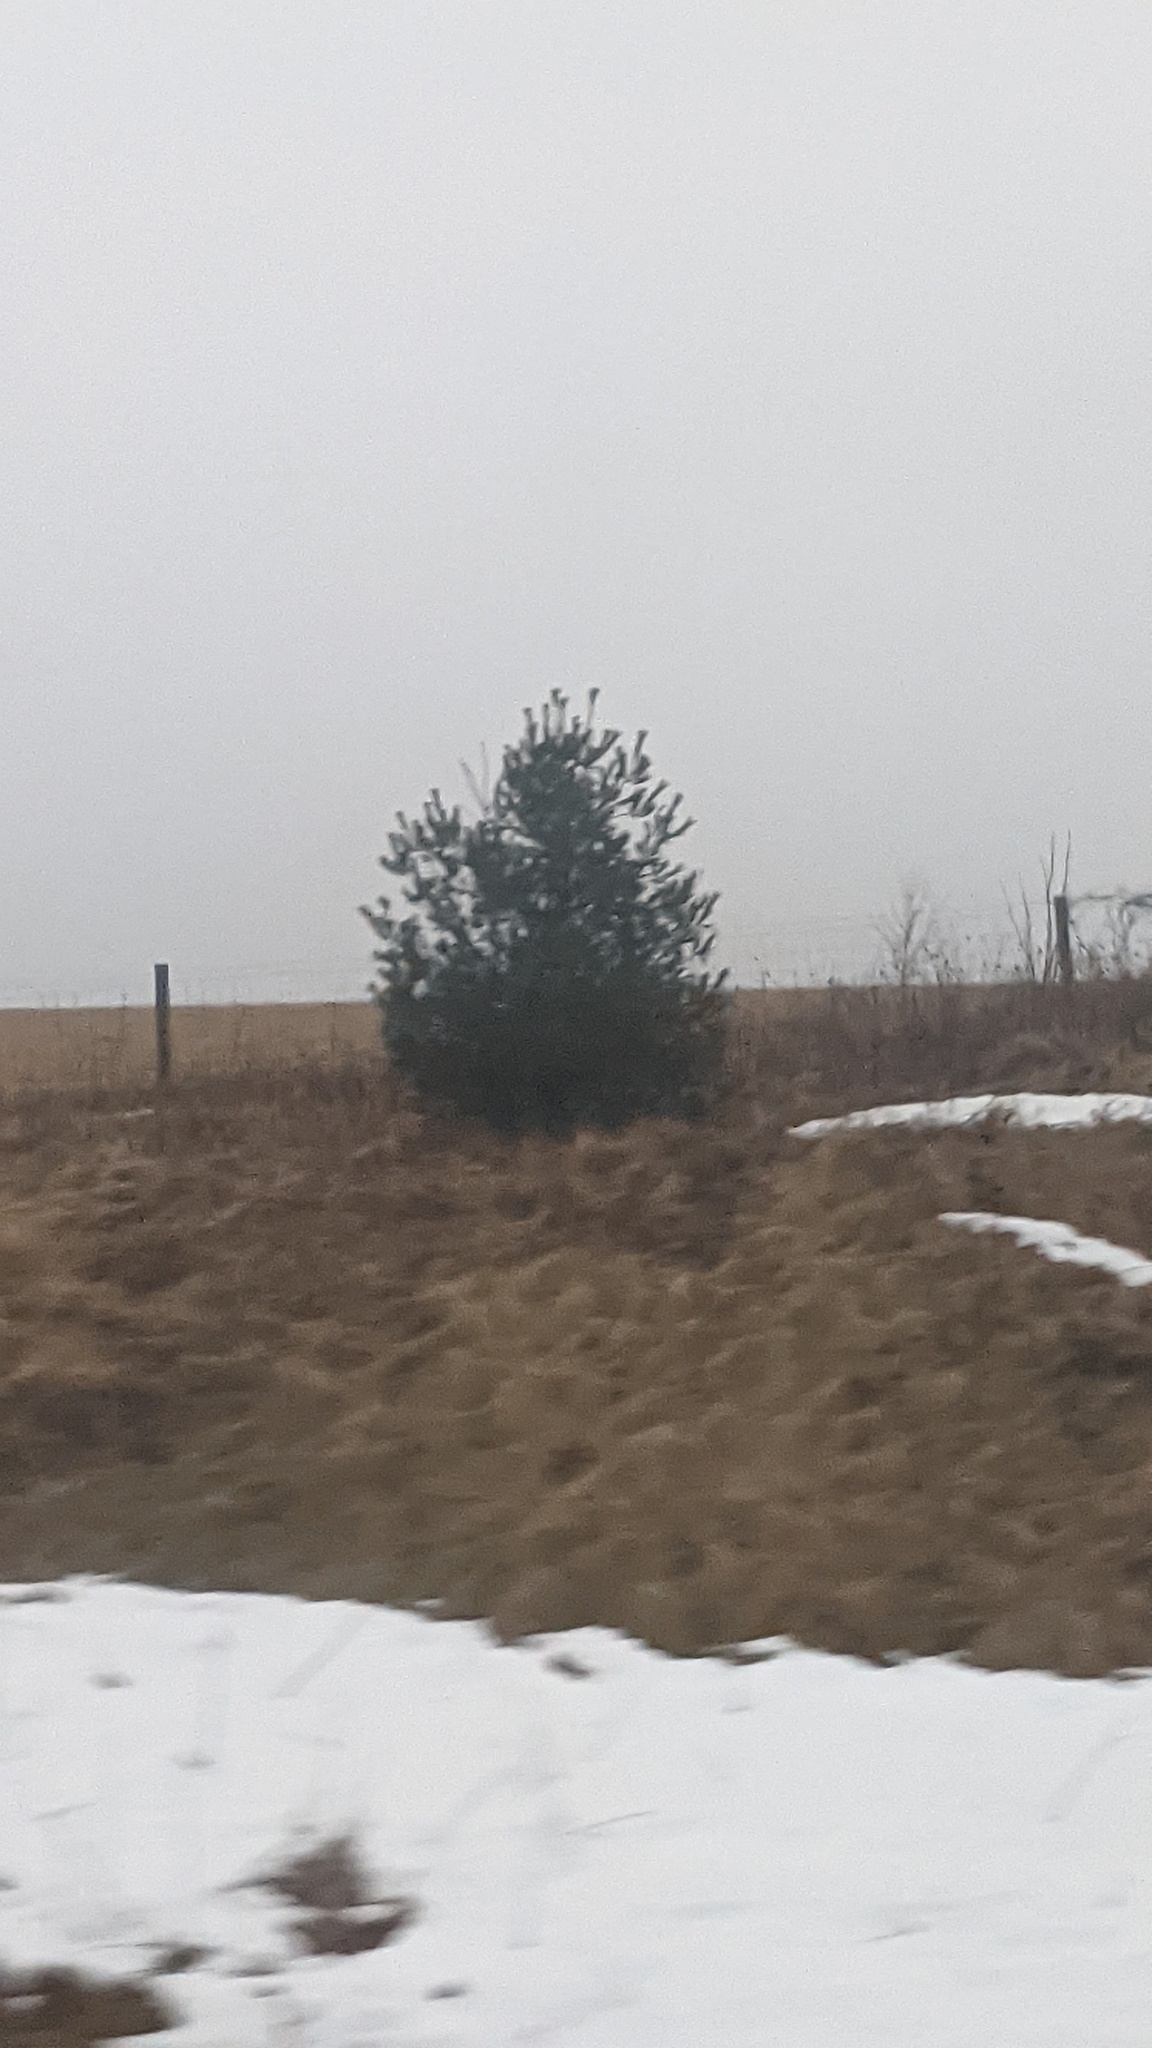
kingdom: Plantae
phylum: Tracheophyta
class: Pinopsida
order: Pinales
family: Pinaceae
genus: Pinus
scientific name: Pinus strobus
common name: Weymouth pine
